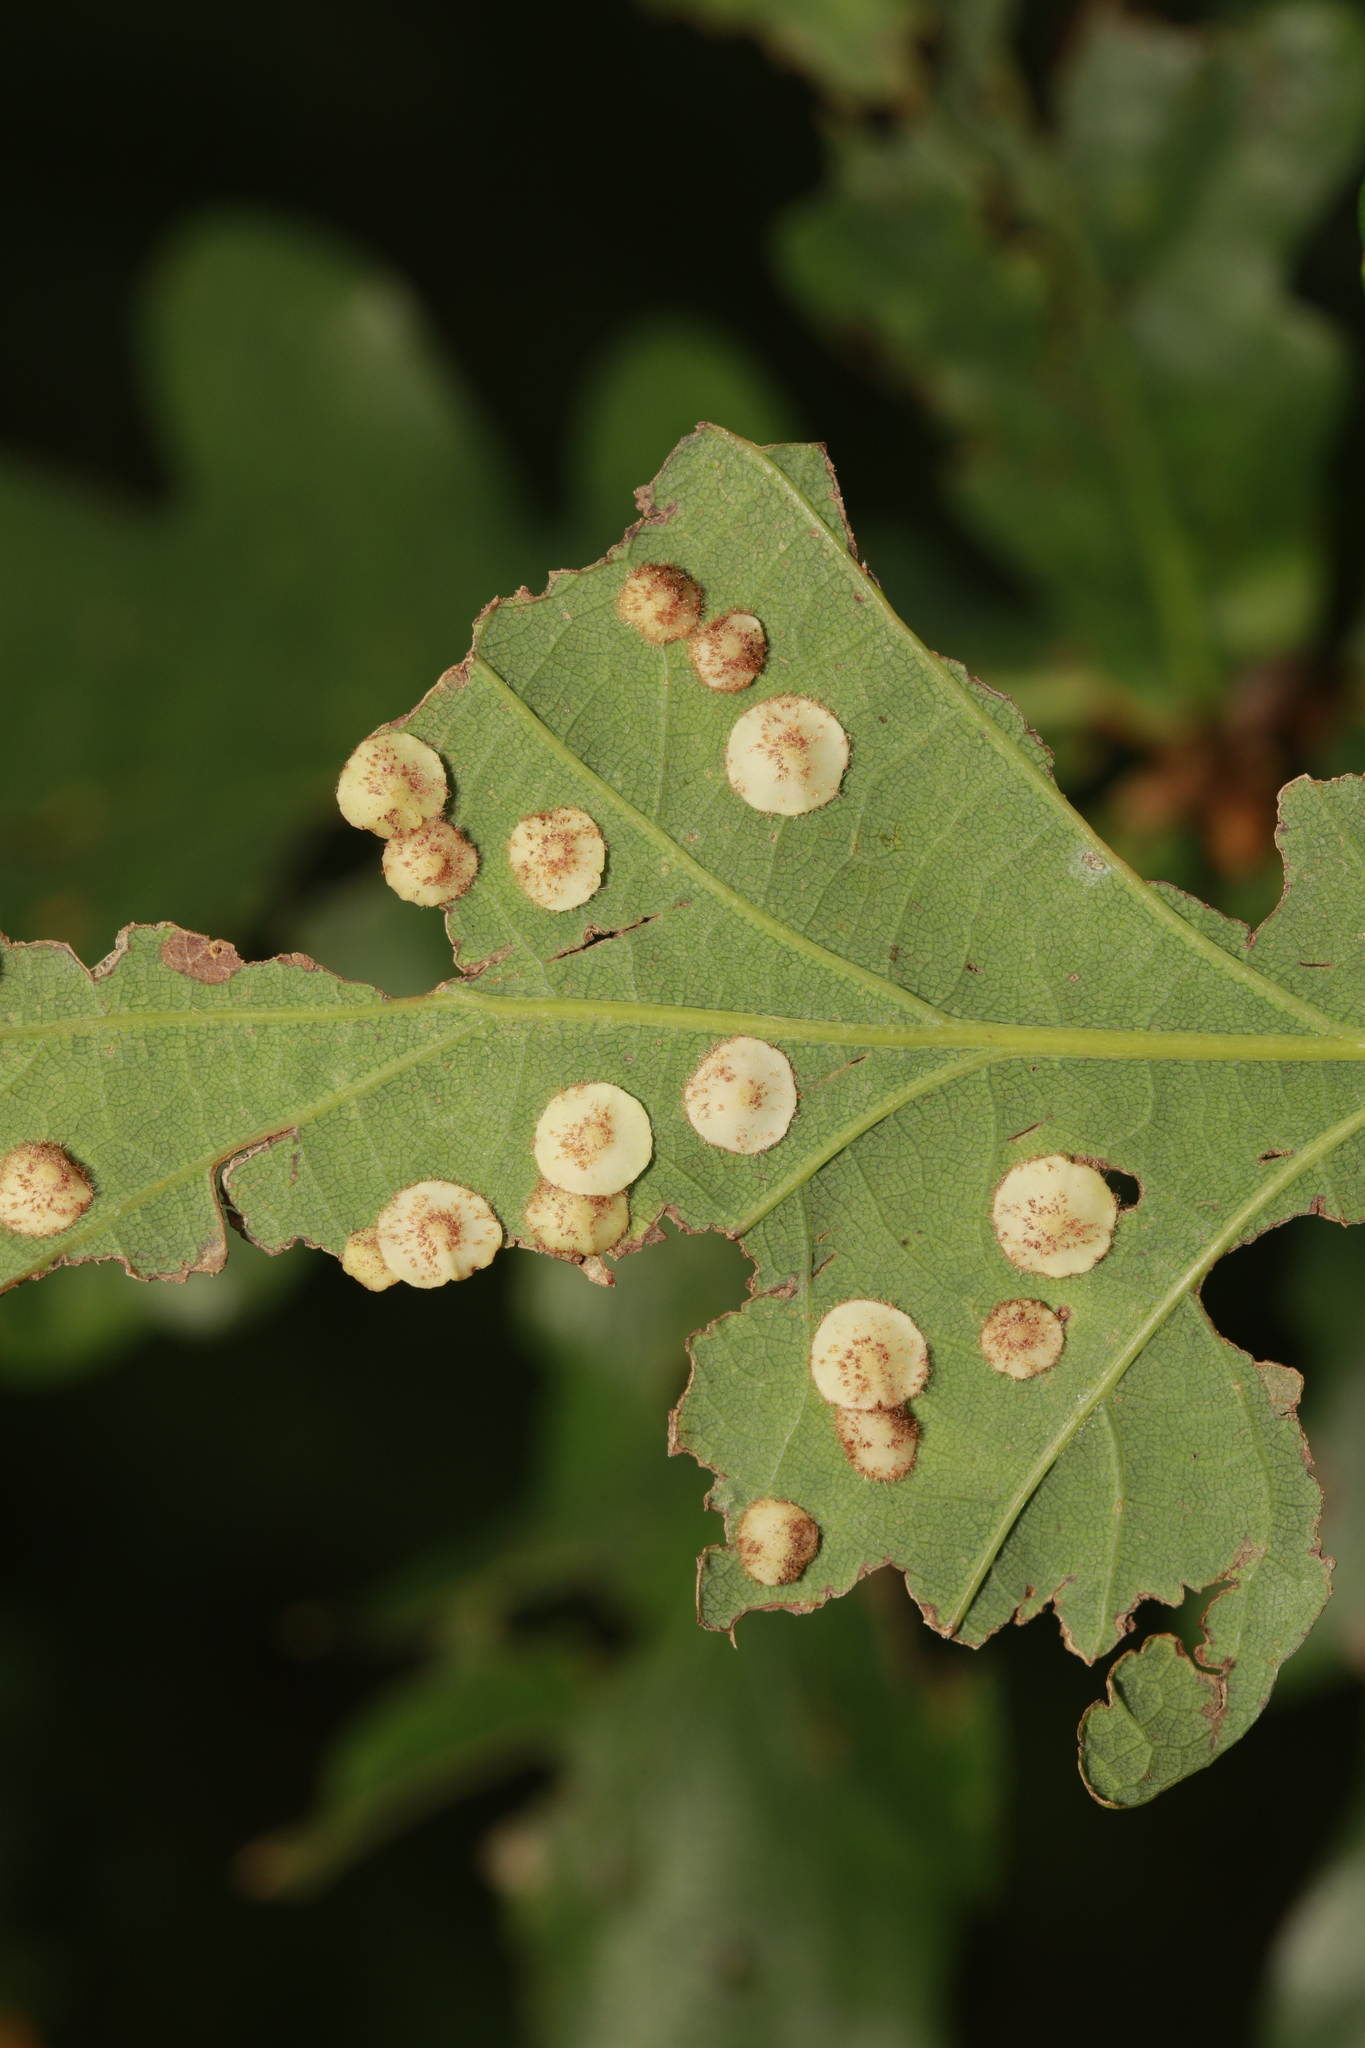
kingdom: Animalia
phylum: Arthropoda
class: Insecta
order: Hymenoptera
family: Cynipidae
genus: Neuroterus
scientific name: Neuroterus quercusbaccarum
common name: Common spangle gall
